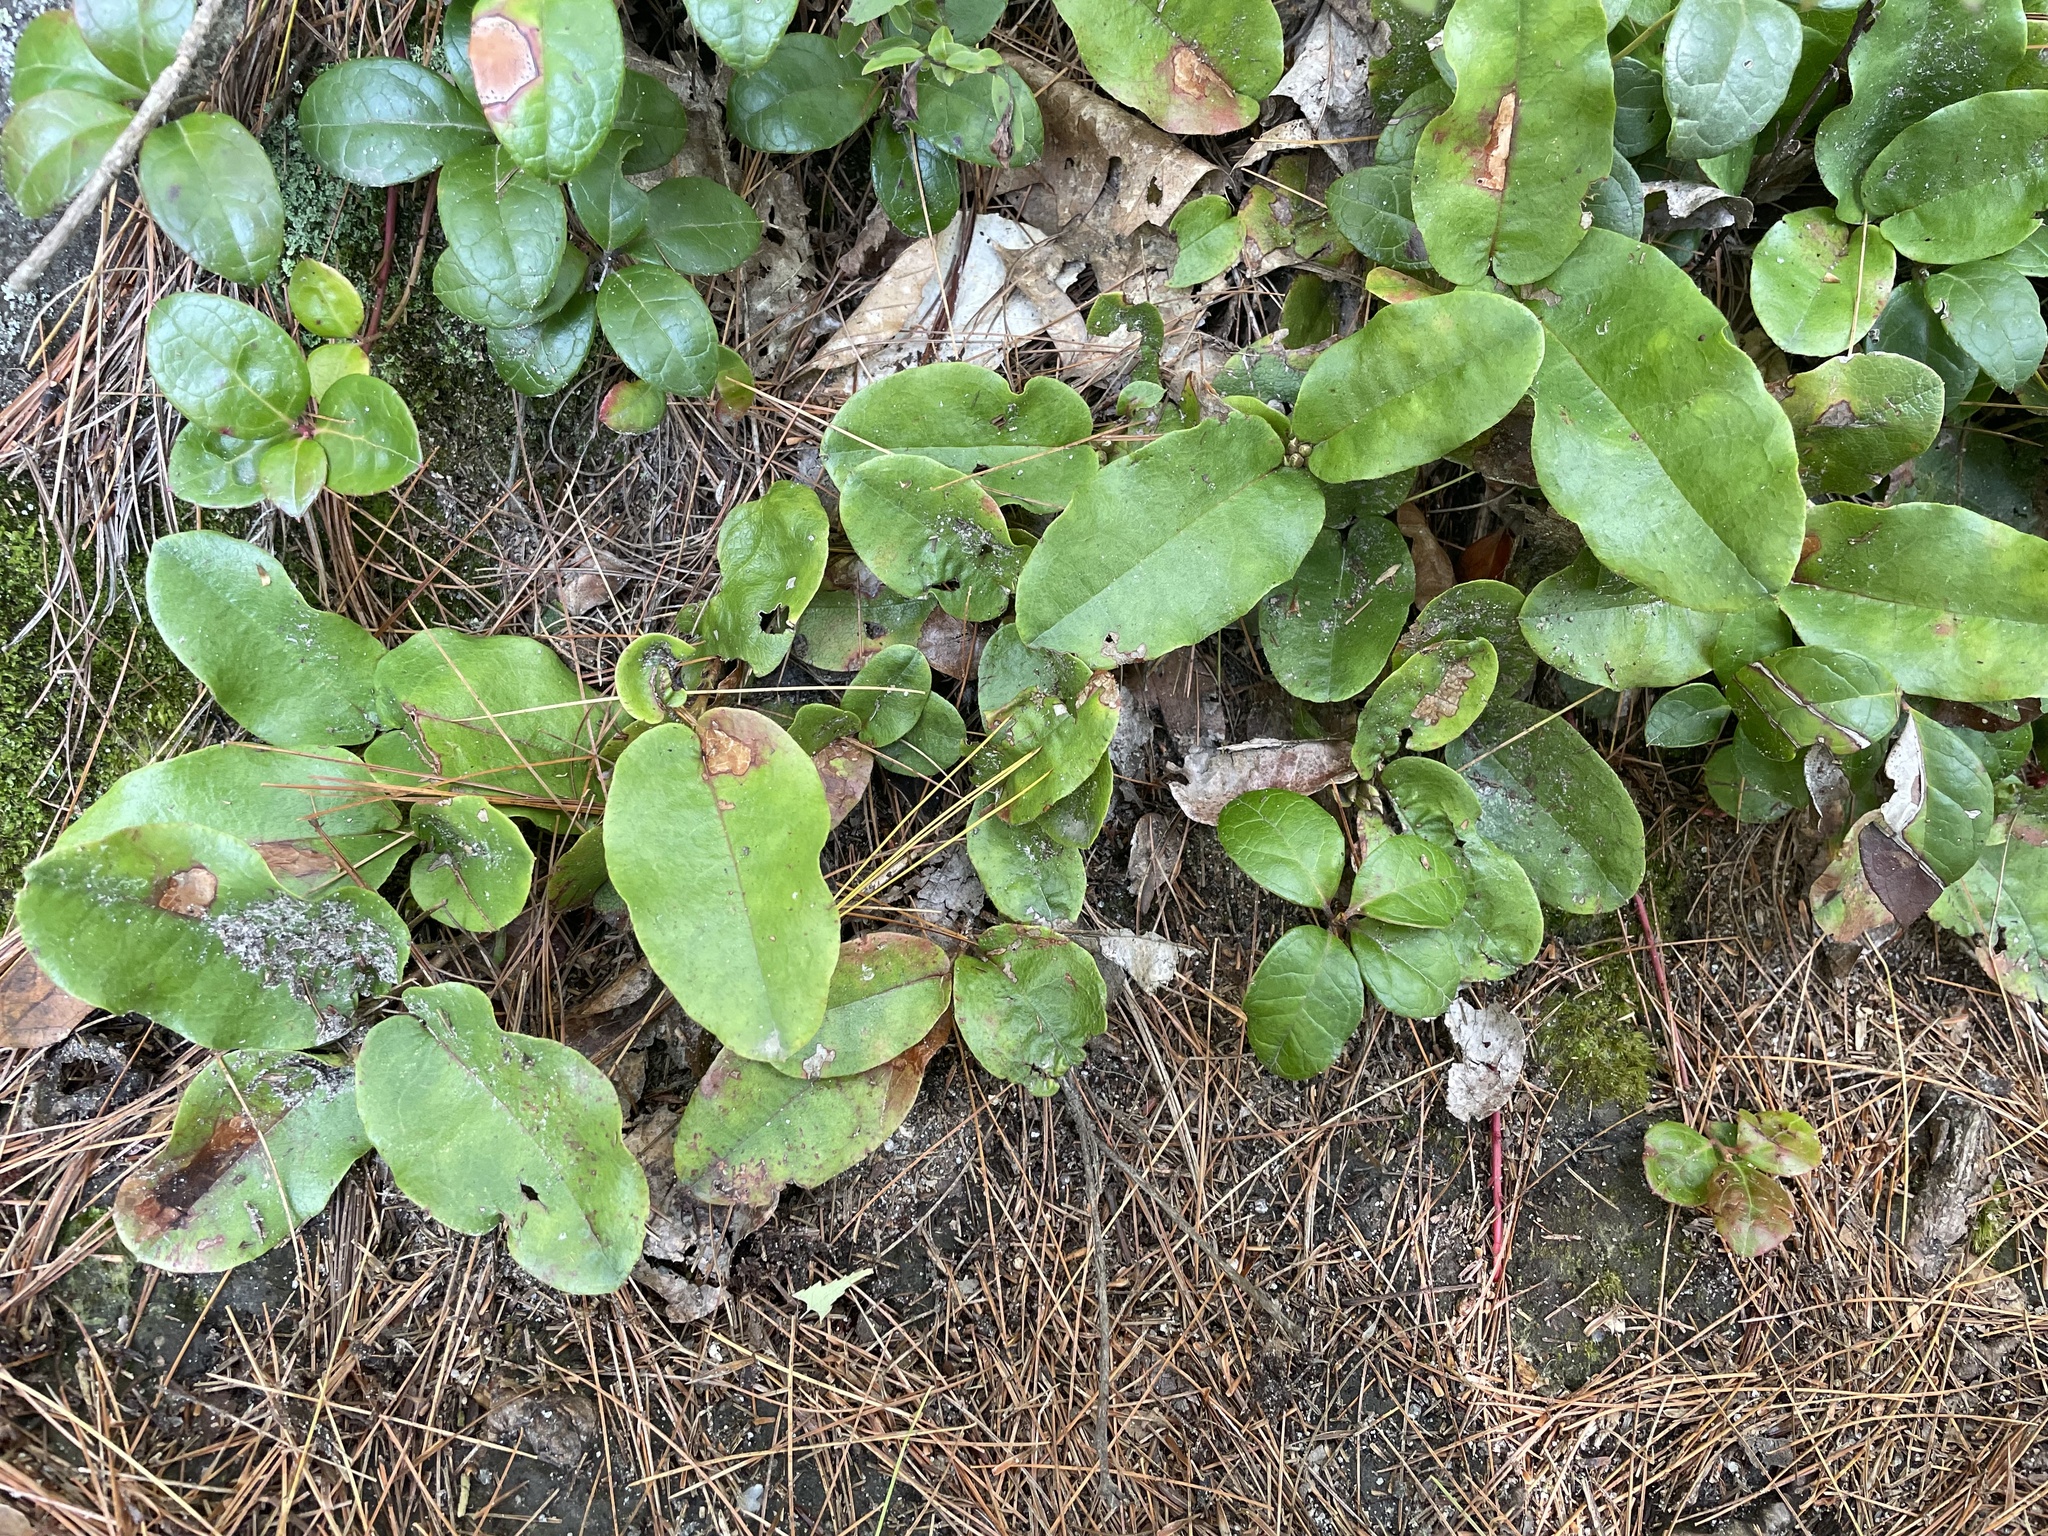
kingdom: Plantae
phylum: Tracheophyta
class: Magnoliopsida
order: Ericales
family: Ericaceae
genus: Epigaea
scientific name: Epigaea repens
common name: Gravelroot
